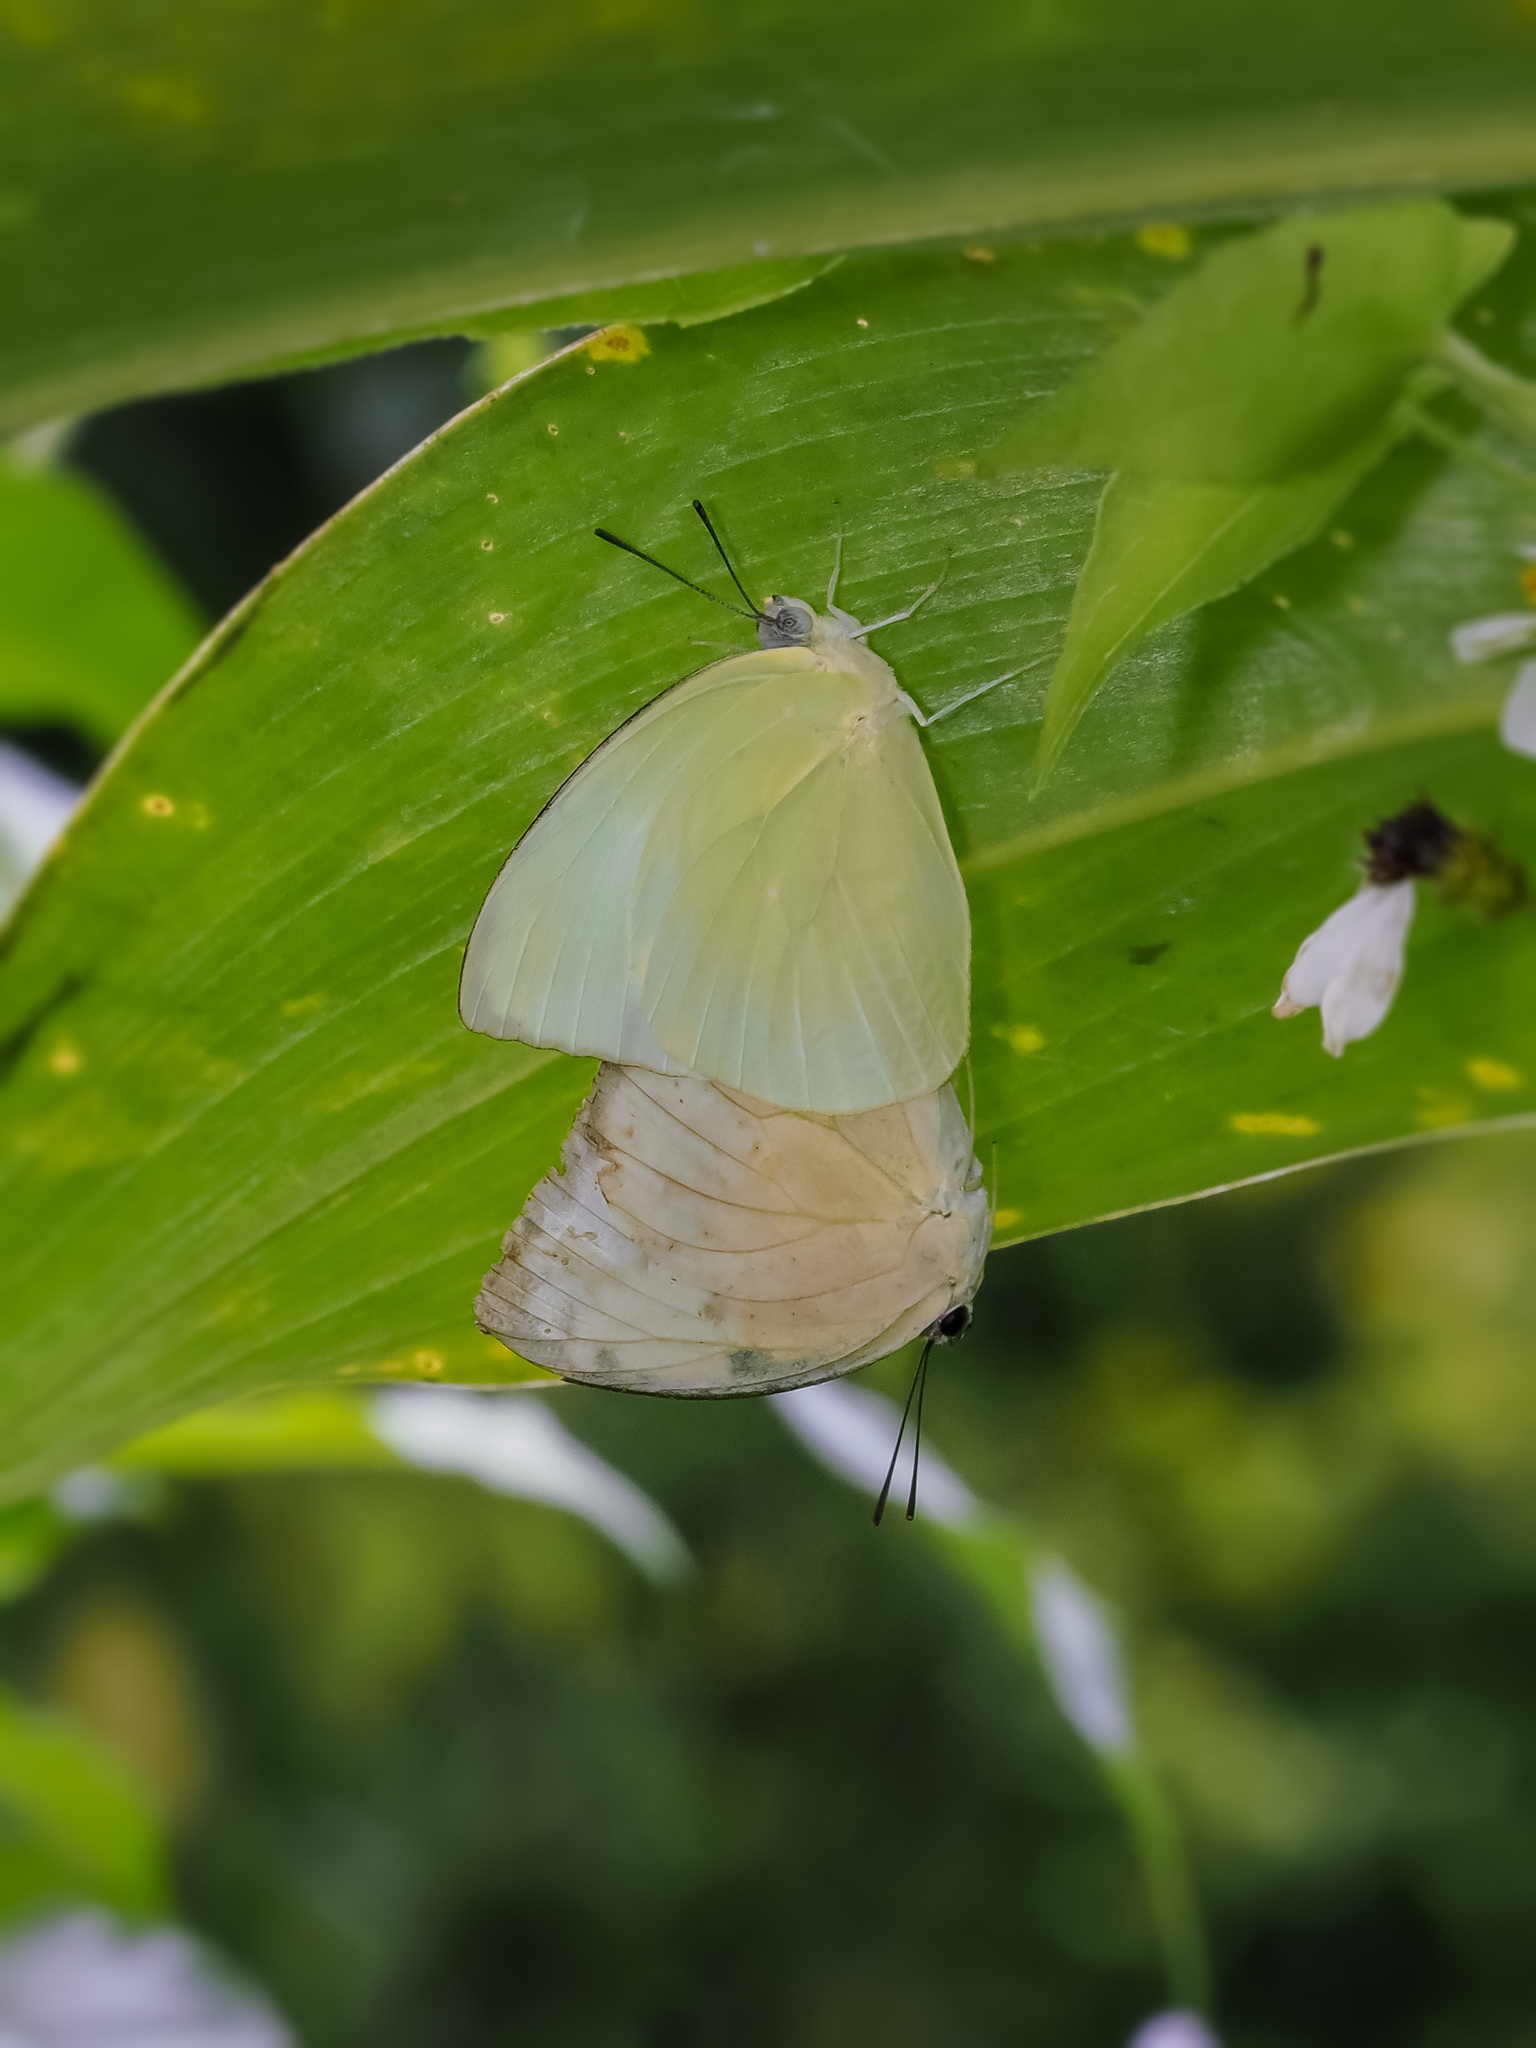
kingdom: Animalia
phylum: Arthropoda
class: Insecta
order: Lepidoptera
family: Pieridae
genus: Catopsilia
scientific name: Catopsilia pomona
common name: Common emigrant
